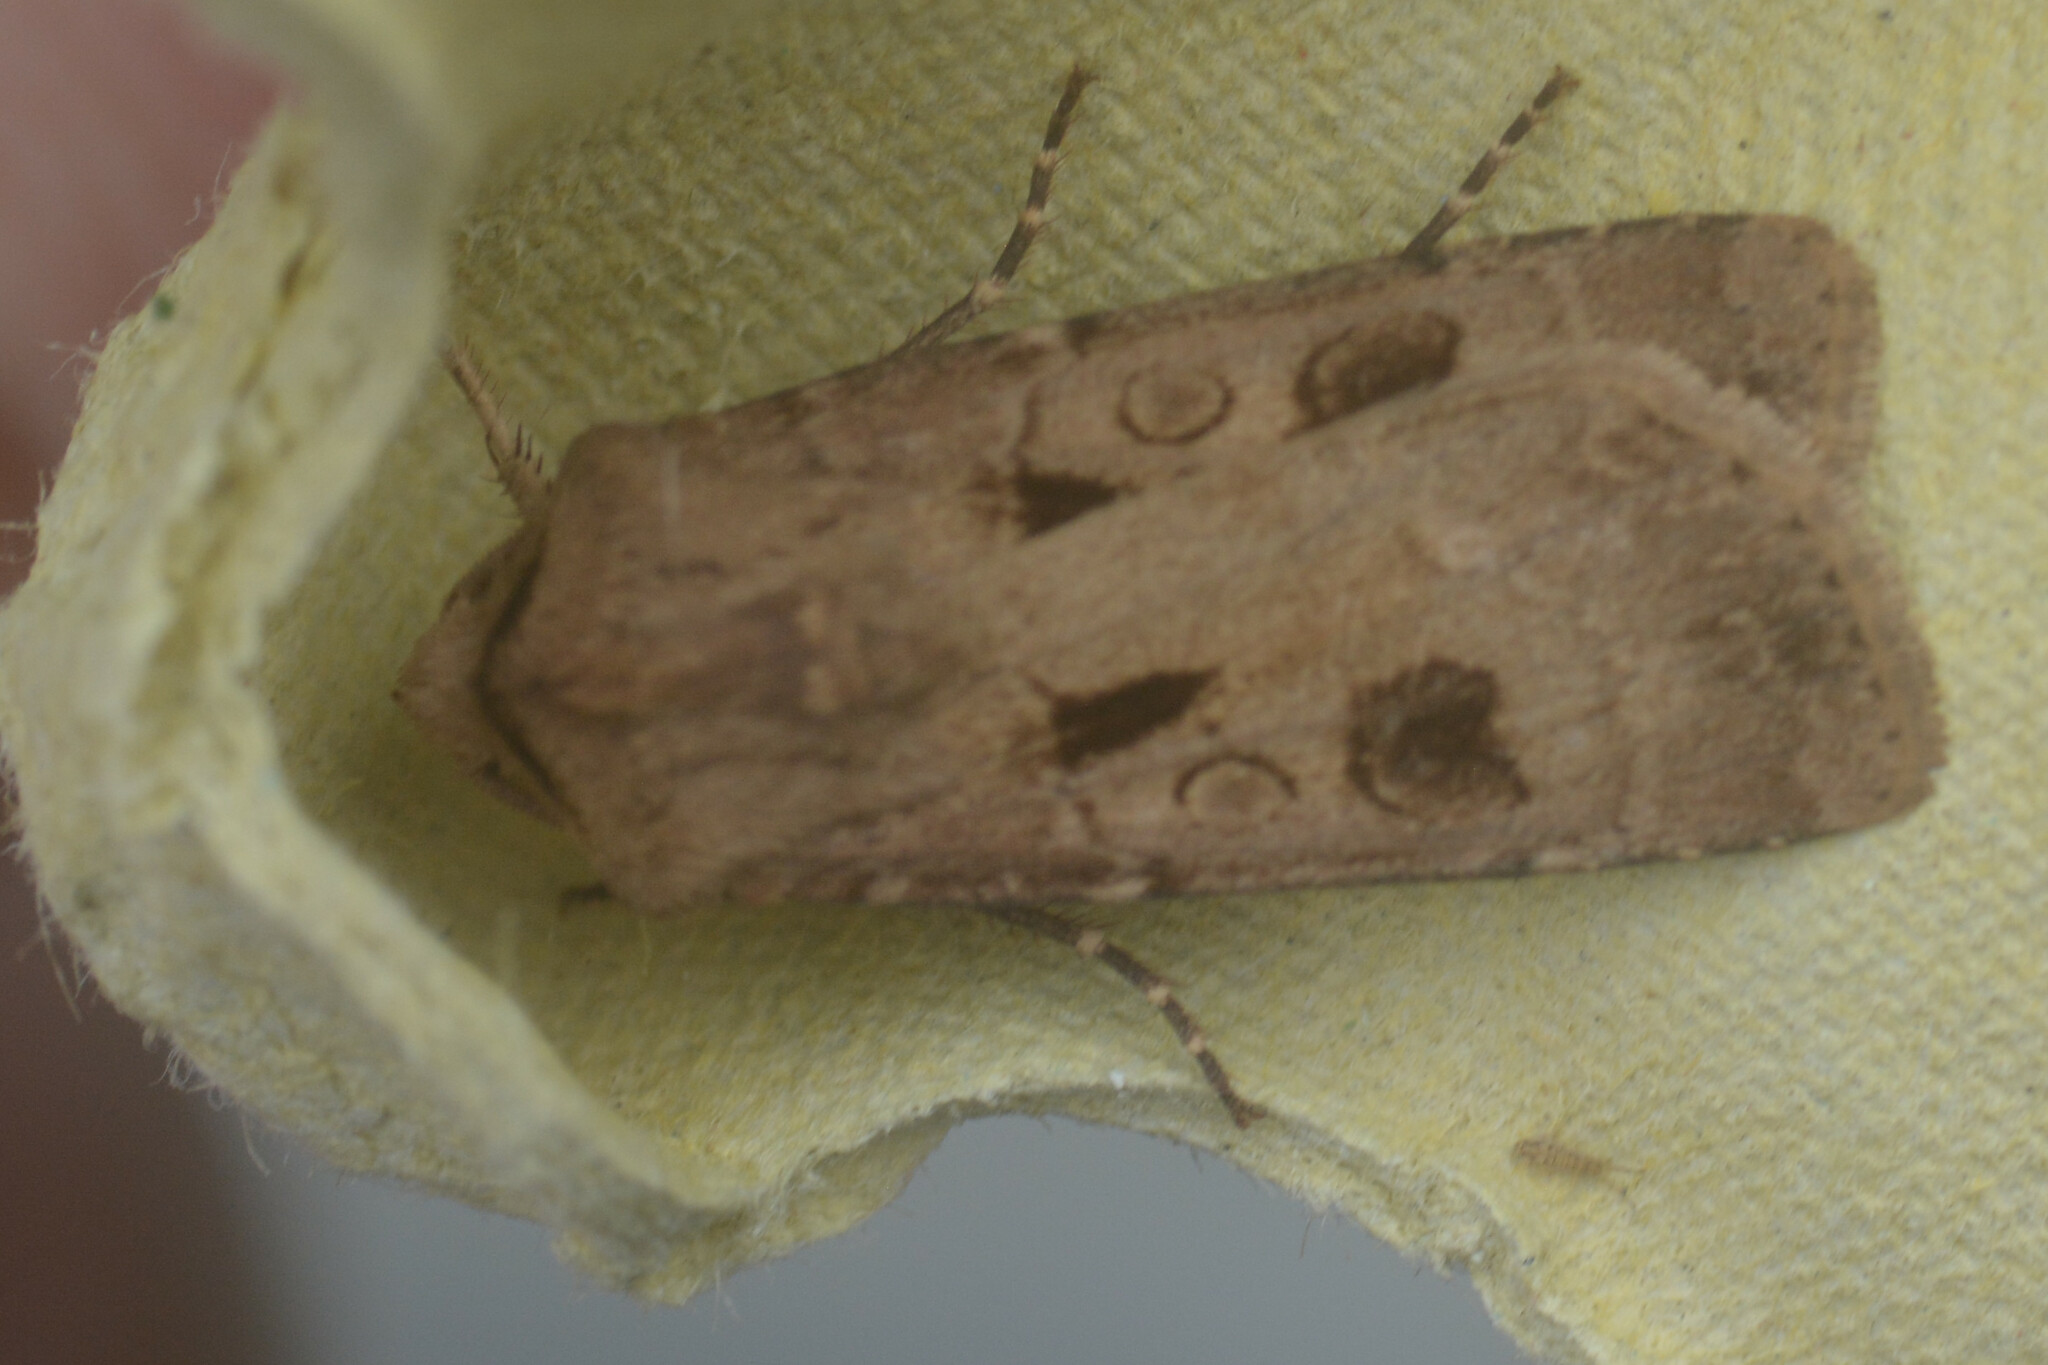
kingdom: Animalia
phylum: Arthropoda
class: Insecta
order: Lepidoptera
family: Noctuidae
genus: Agrotis
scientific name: Agrotis exclamationis
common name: Heart and dart
